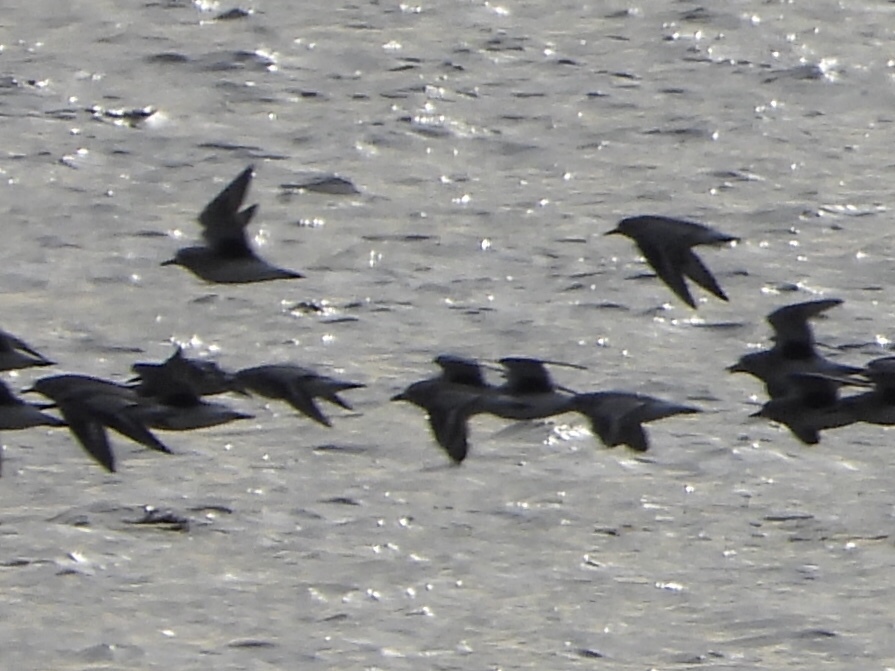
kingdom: Animalia
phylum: Chordata
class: Aves
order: Charadriiformes
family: Charadriidae
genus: Pluvialis
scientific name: Pluvialis squatarola
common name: Grey plover
